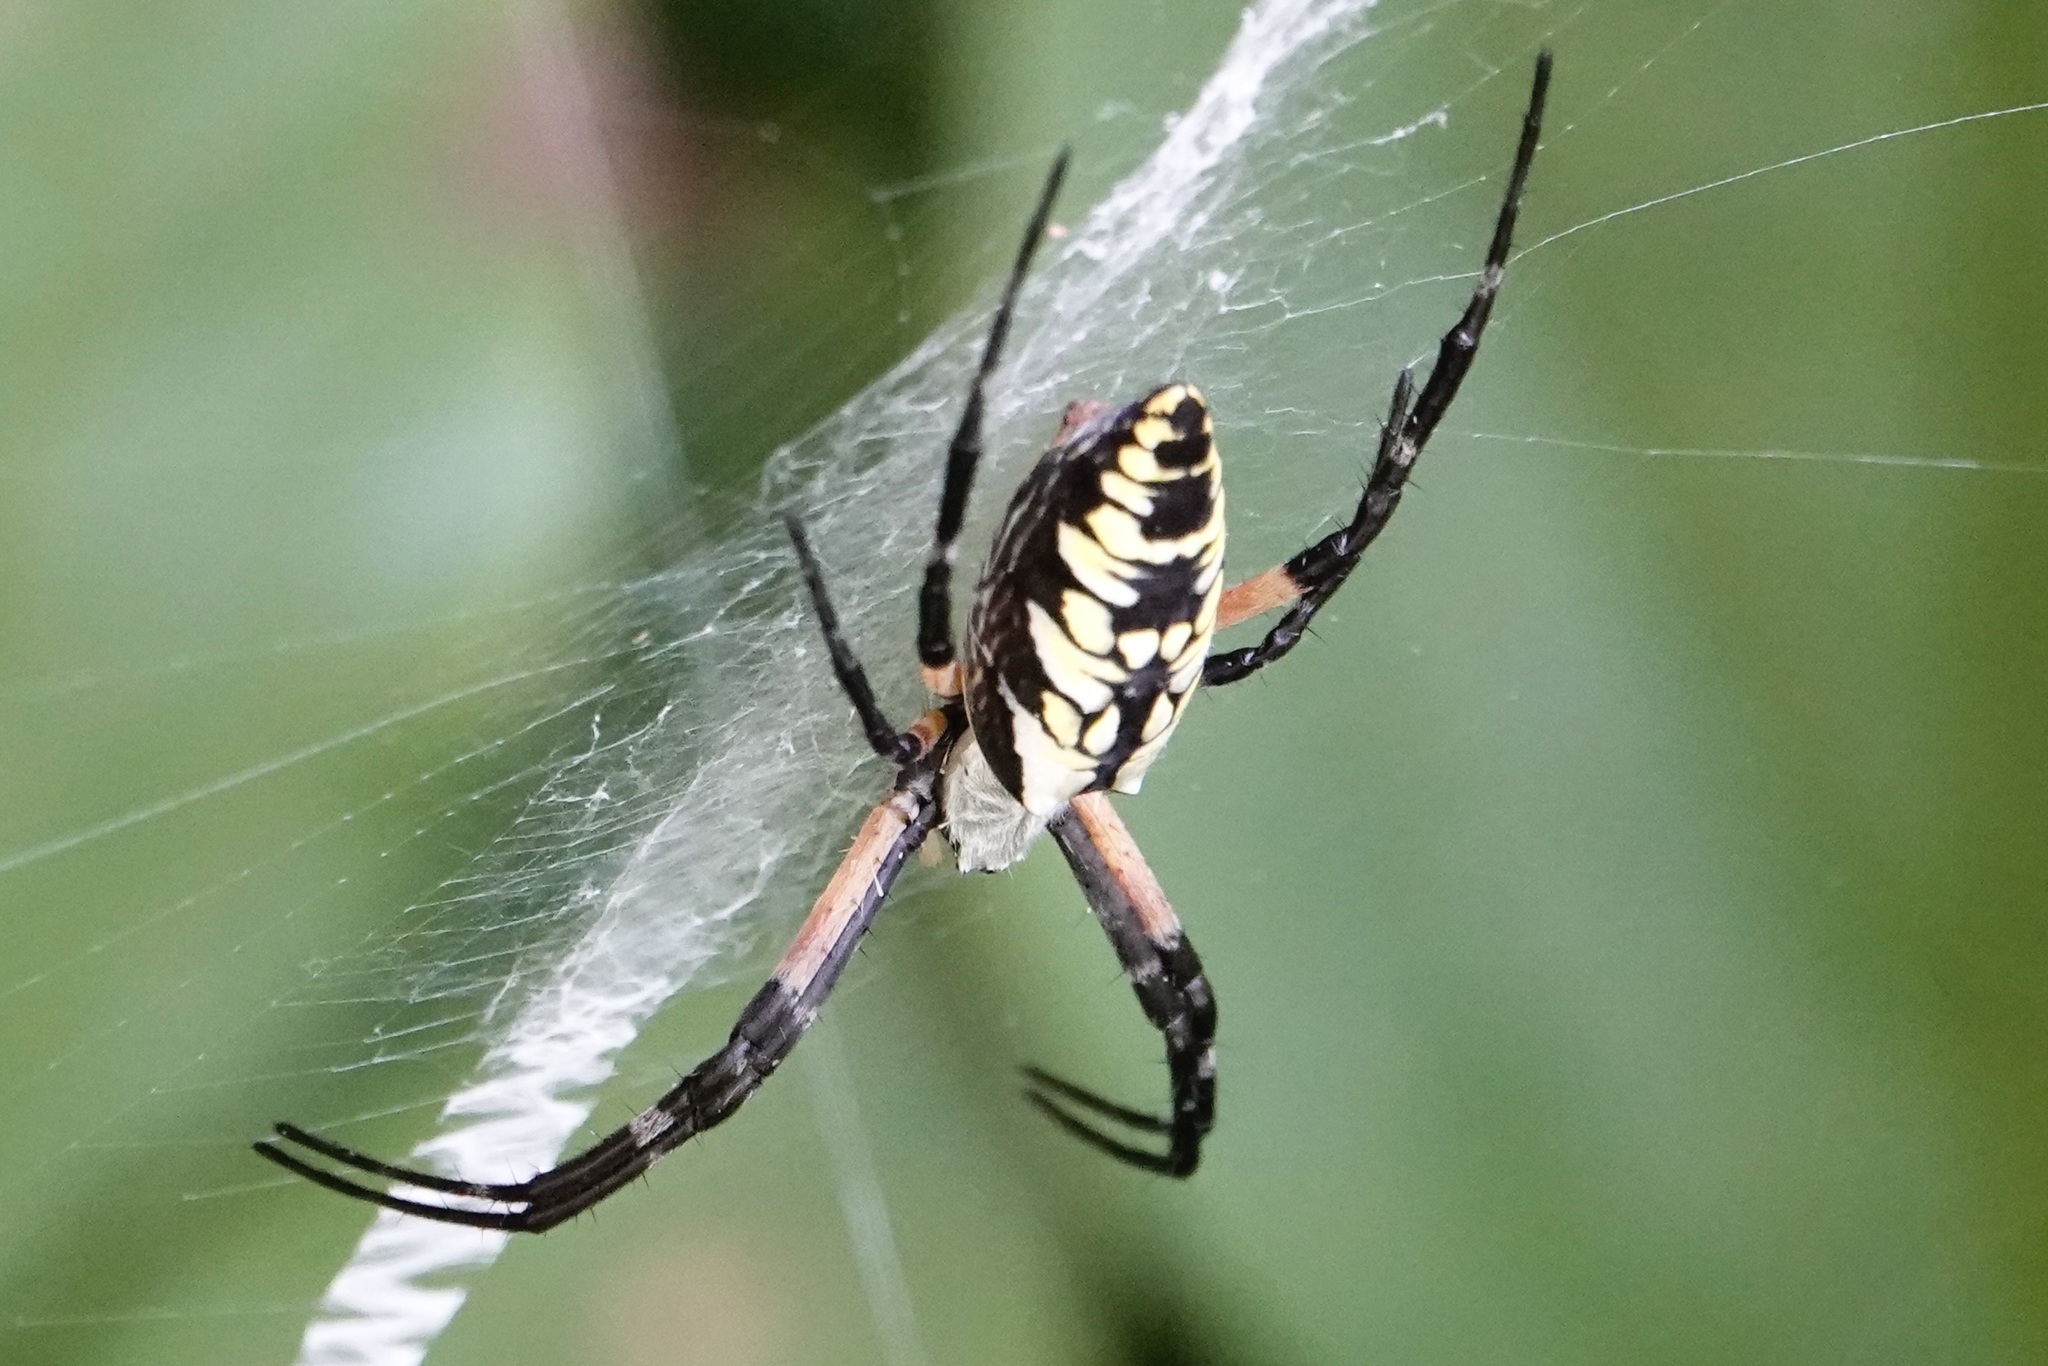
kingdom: Animalia
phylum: Arthropoda
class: Arachnida
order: Araneae
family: Araneidae
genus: Argiope
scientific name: Argiope aurantia
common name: Orb weavers
